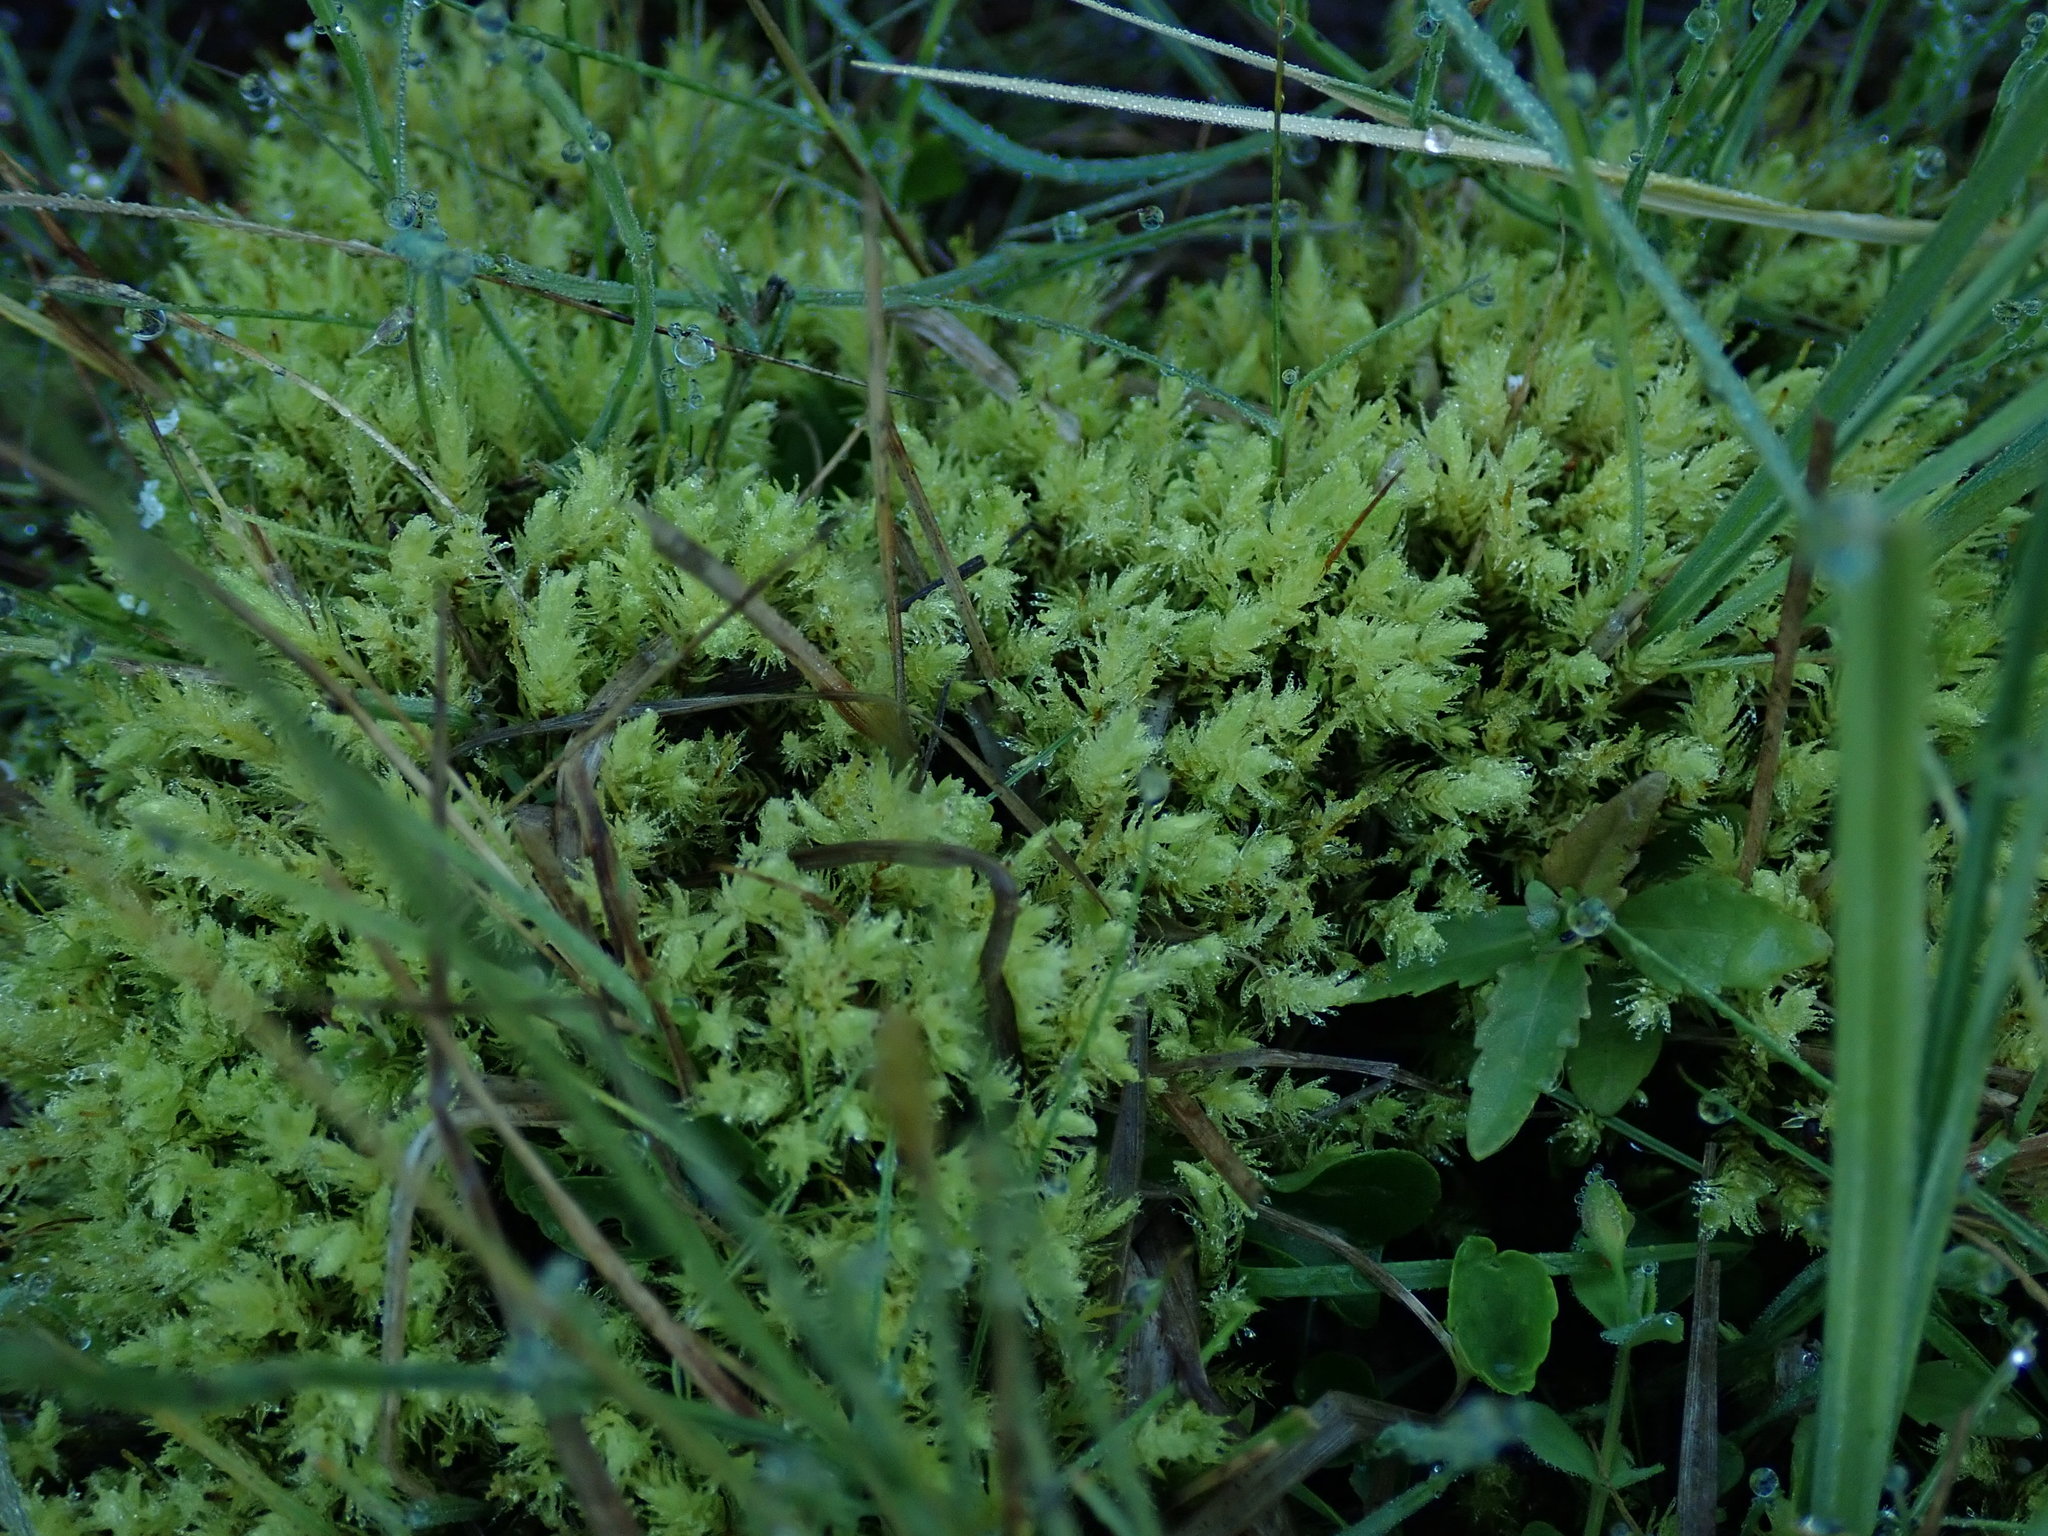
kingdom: Plantae
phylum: Bryophyta
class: Bryopsida
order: Aulacomniales
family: Aulacomniaceae
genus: Aulacomnium
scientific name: Aulacomnium palustre
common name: Bog groove-moss
